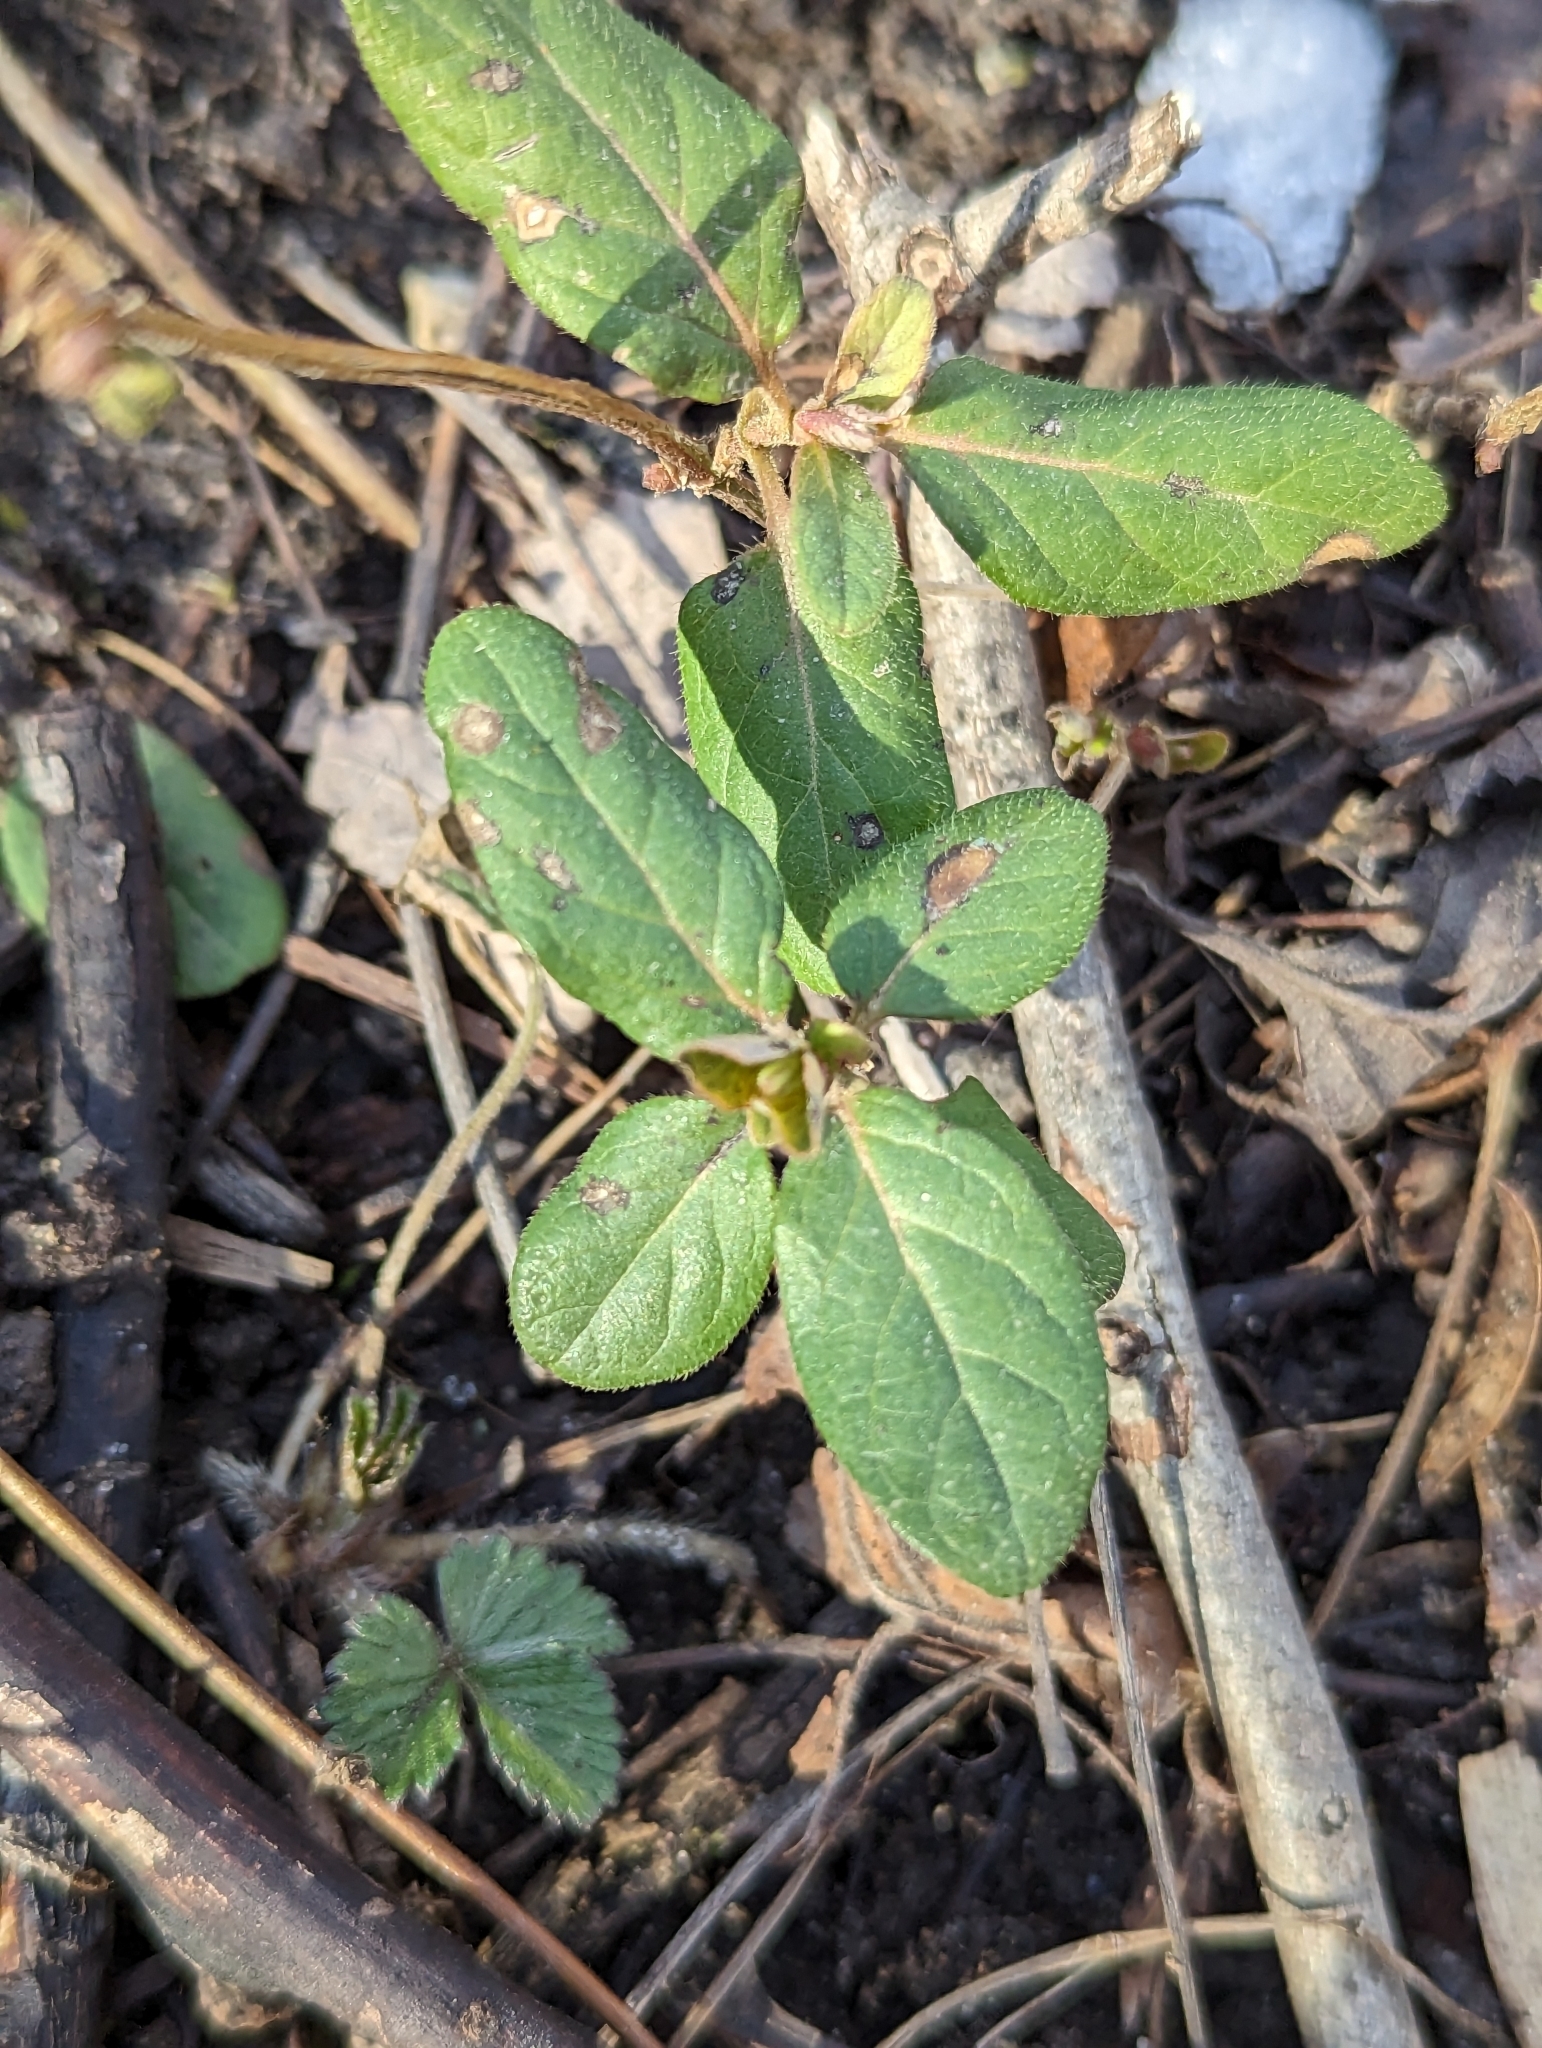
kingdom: Plantae
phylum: Tracheophyta
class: Magnoliopsida
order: Dipsacales
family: Caprifoliaceae
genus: Lonicera
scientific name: Lonicera japonica
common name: Japanese honeysuckle
